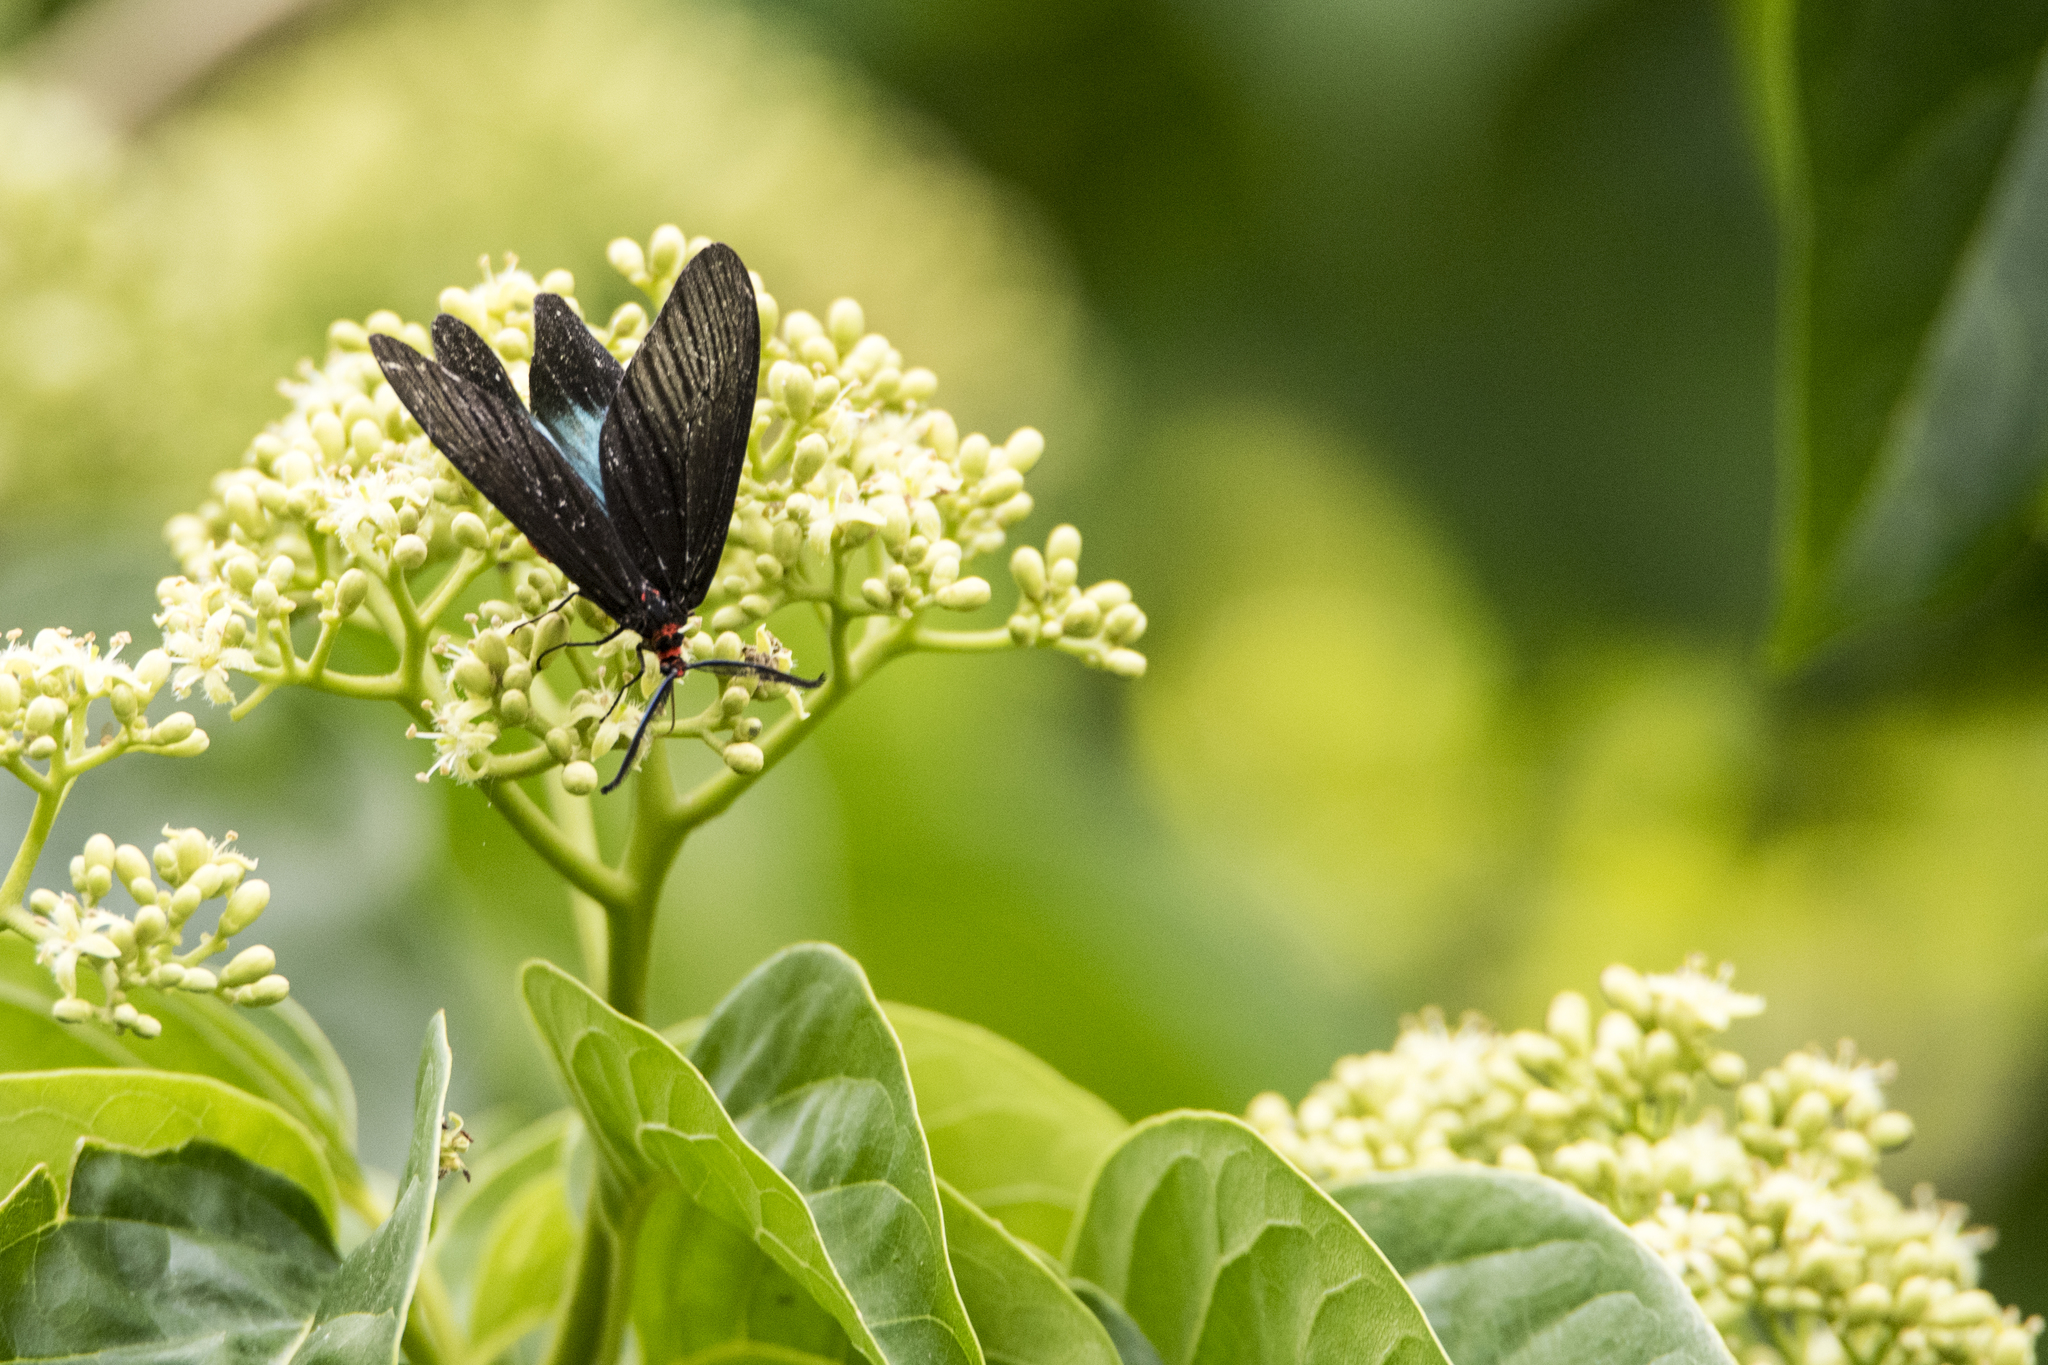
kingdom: Animalia
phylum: Arthropoda
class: Insecta
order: Lepidoptera
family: Zygaenidae
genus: Histia
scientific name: Histia flabellicornis
